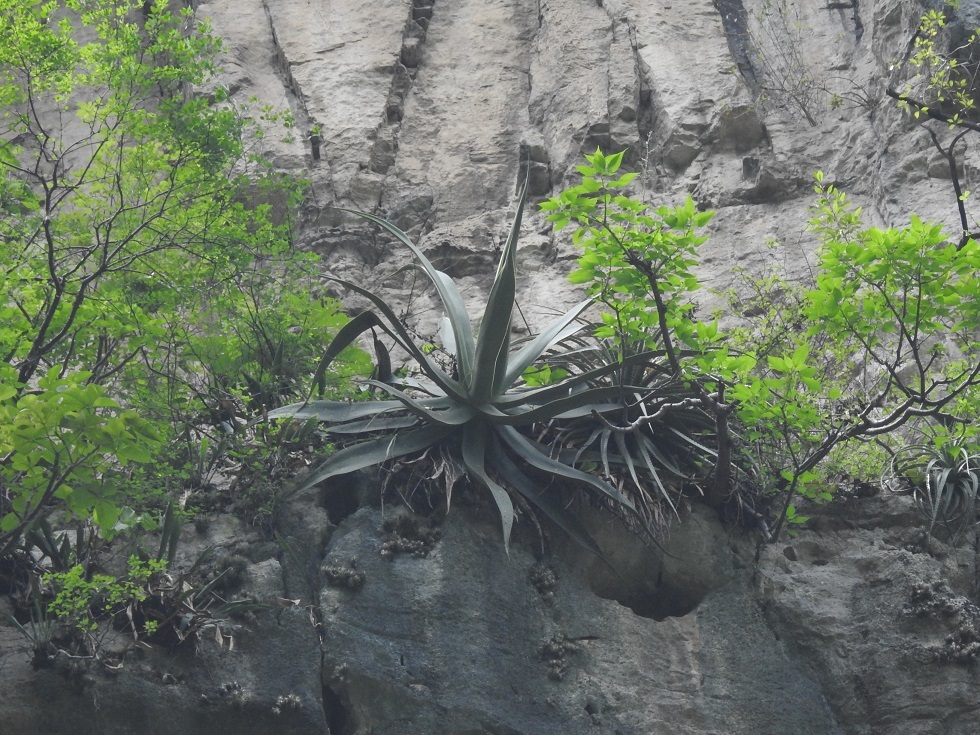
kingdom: Plantae
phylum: Tracheophyta
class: Liliopsida
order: Asparagales
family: Asparagaceae
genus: Agave
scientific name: Agave kewensis
